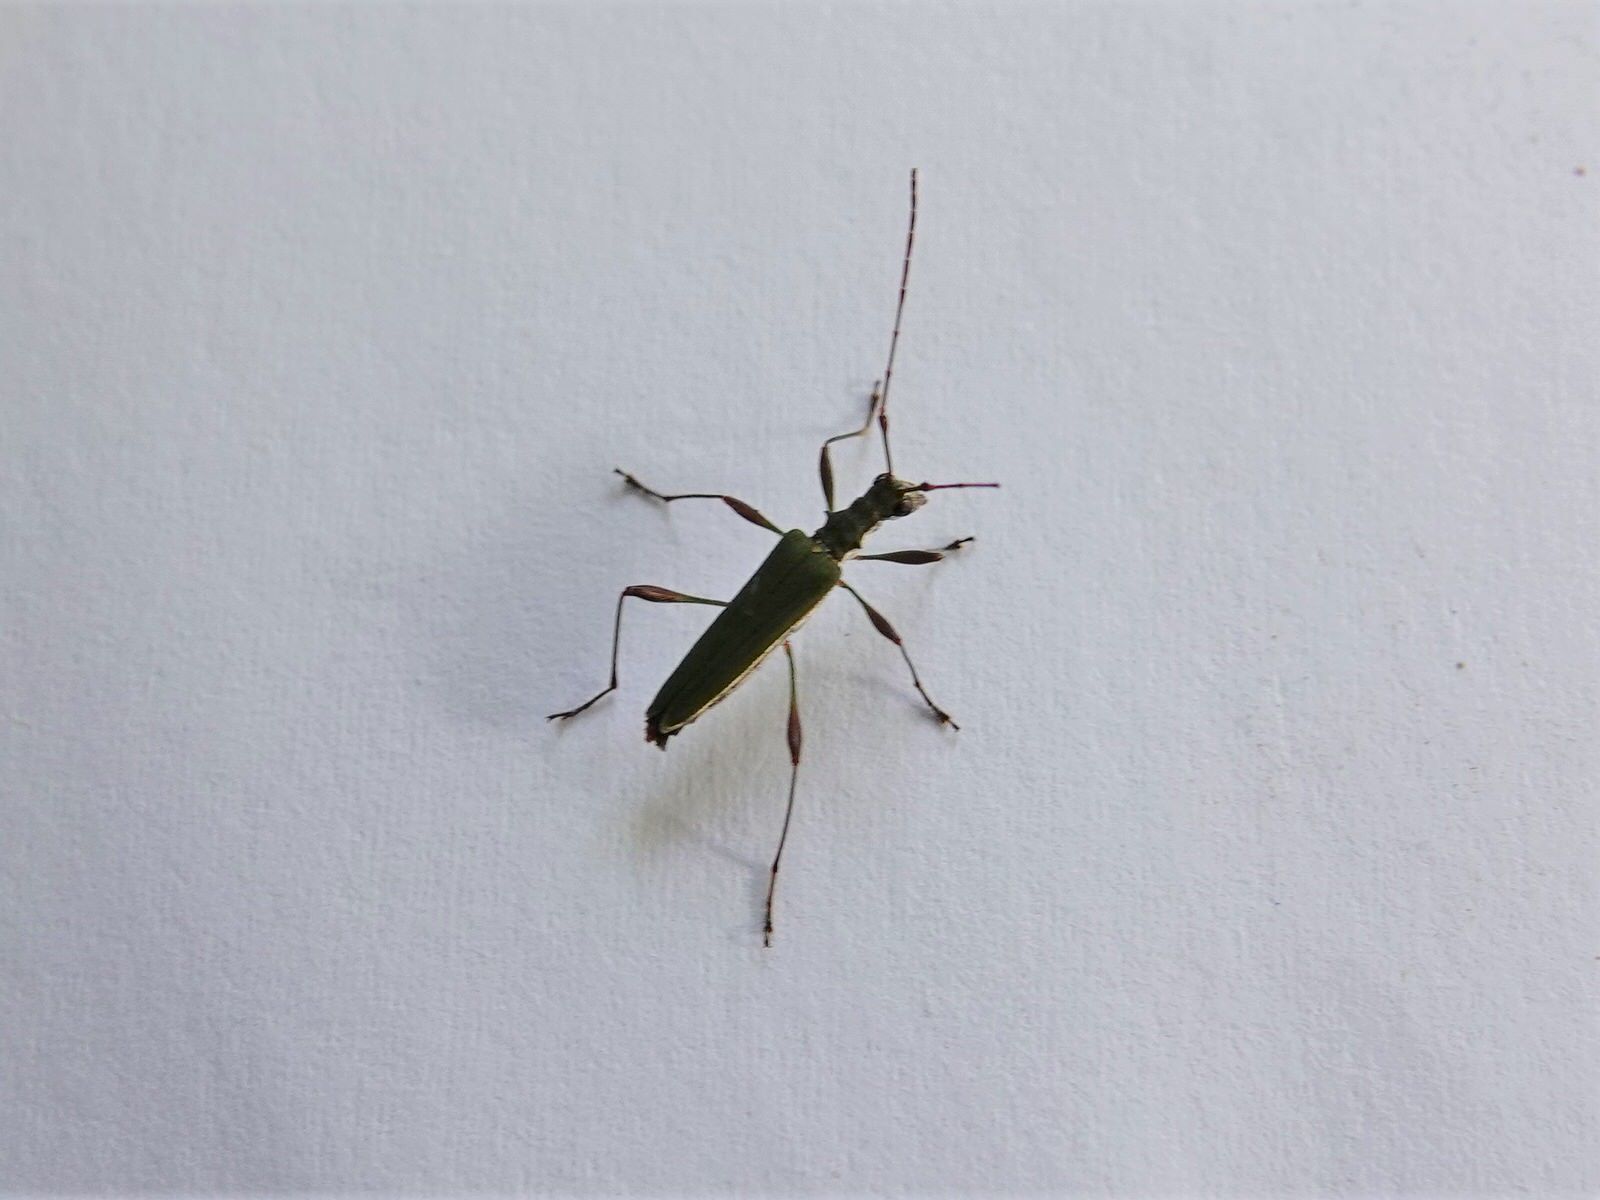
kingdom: Animalia
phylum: Arthropoda
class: Insecta
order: Coleoptera
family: Cerambycidae
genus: Calliprason
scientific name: Calliprason sinclairi
